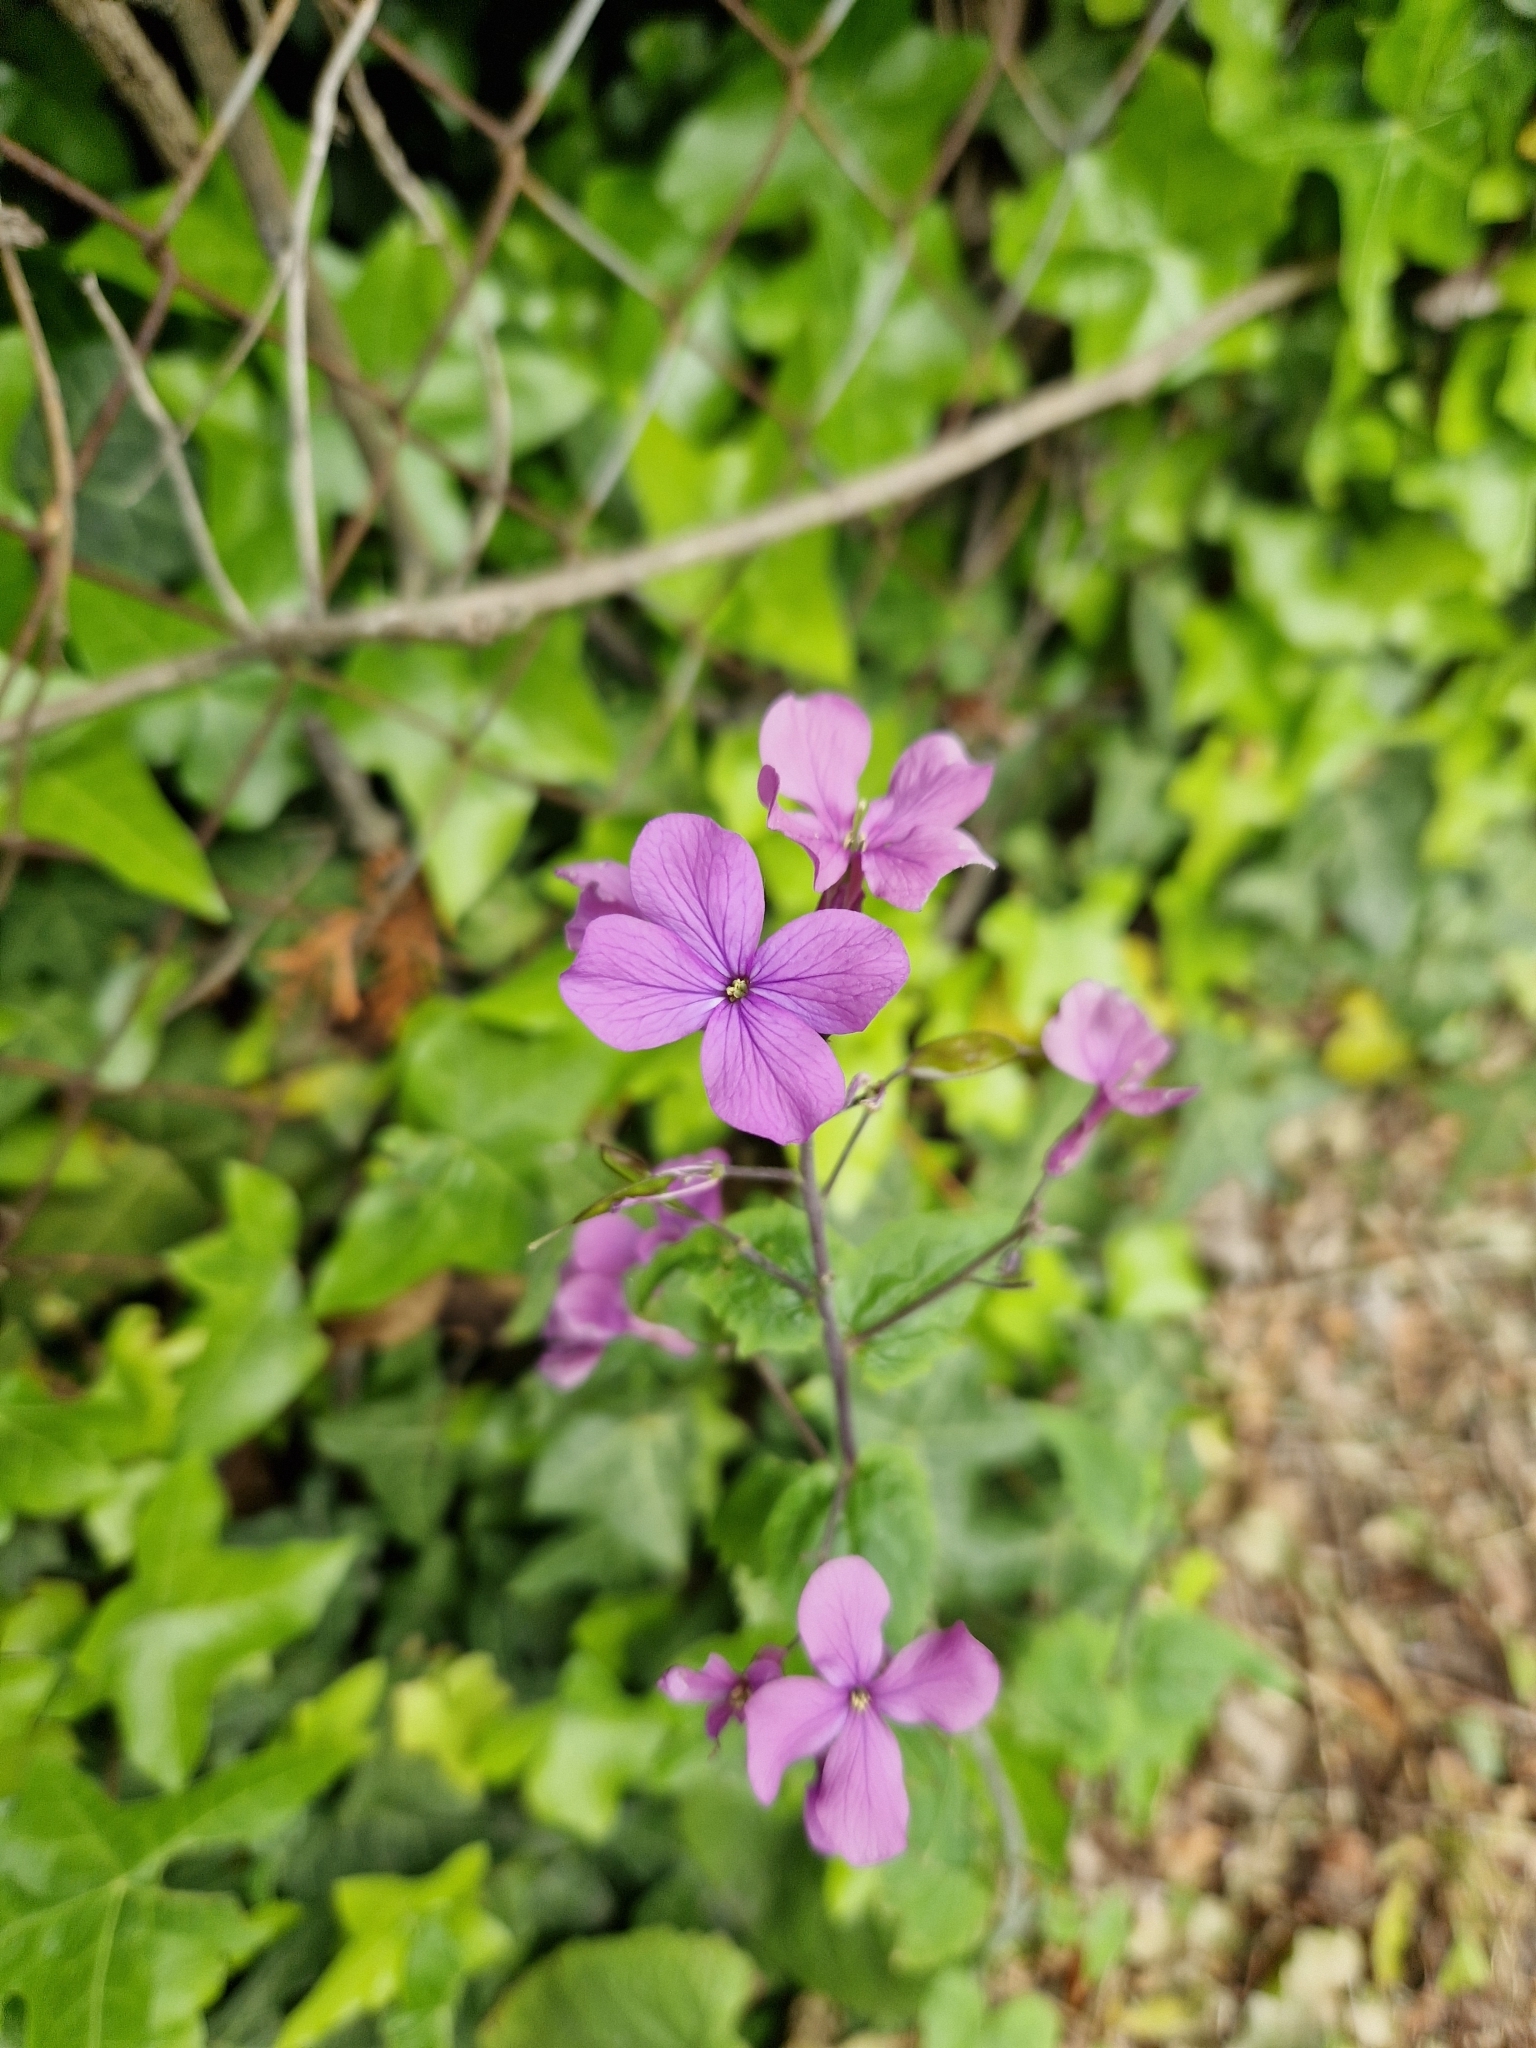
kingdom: Plantae
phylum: Tracheophyta
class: Magnoliopsida
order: Brassicales
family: Brassicaceae
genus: Lunaria
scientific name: Lunaria annua
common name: Honesty
